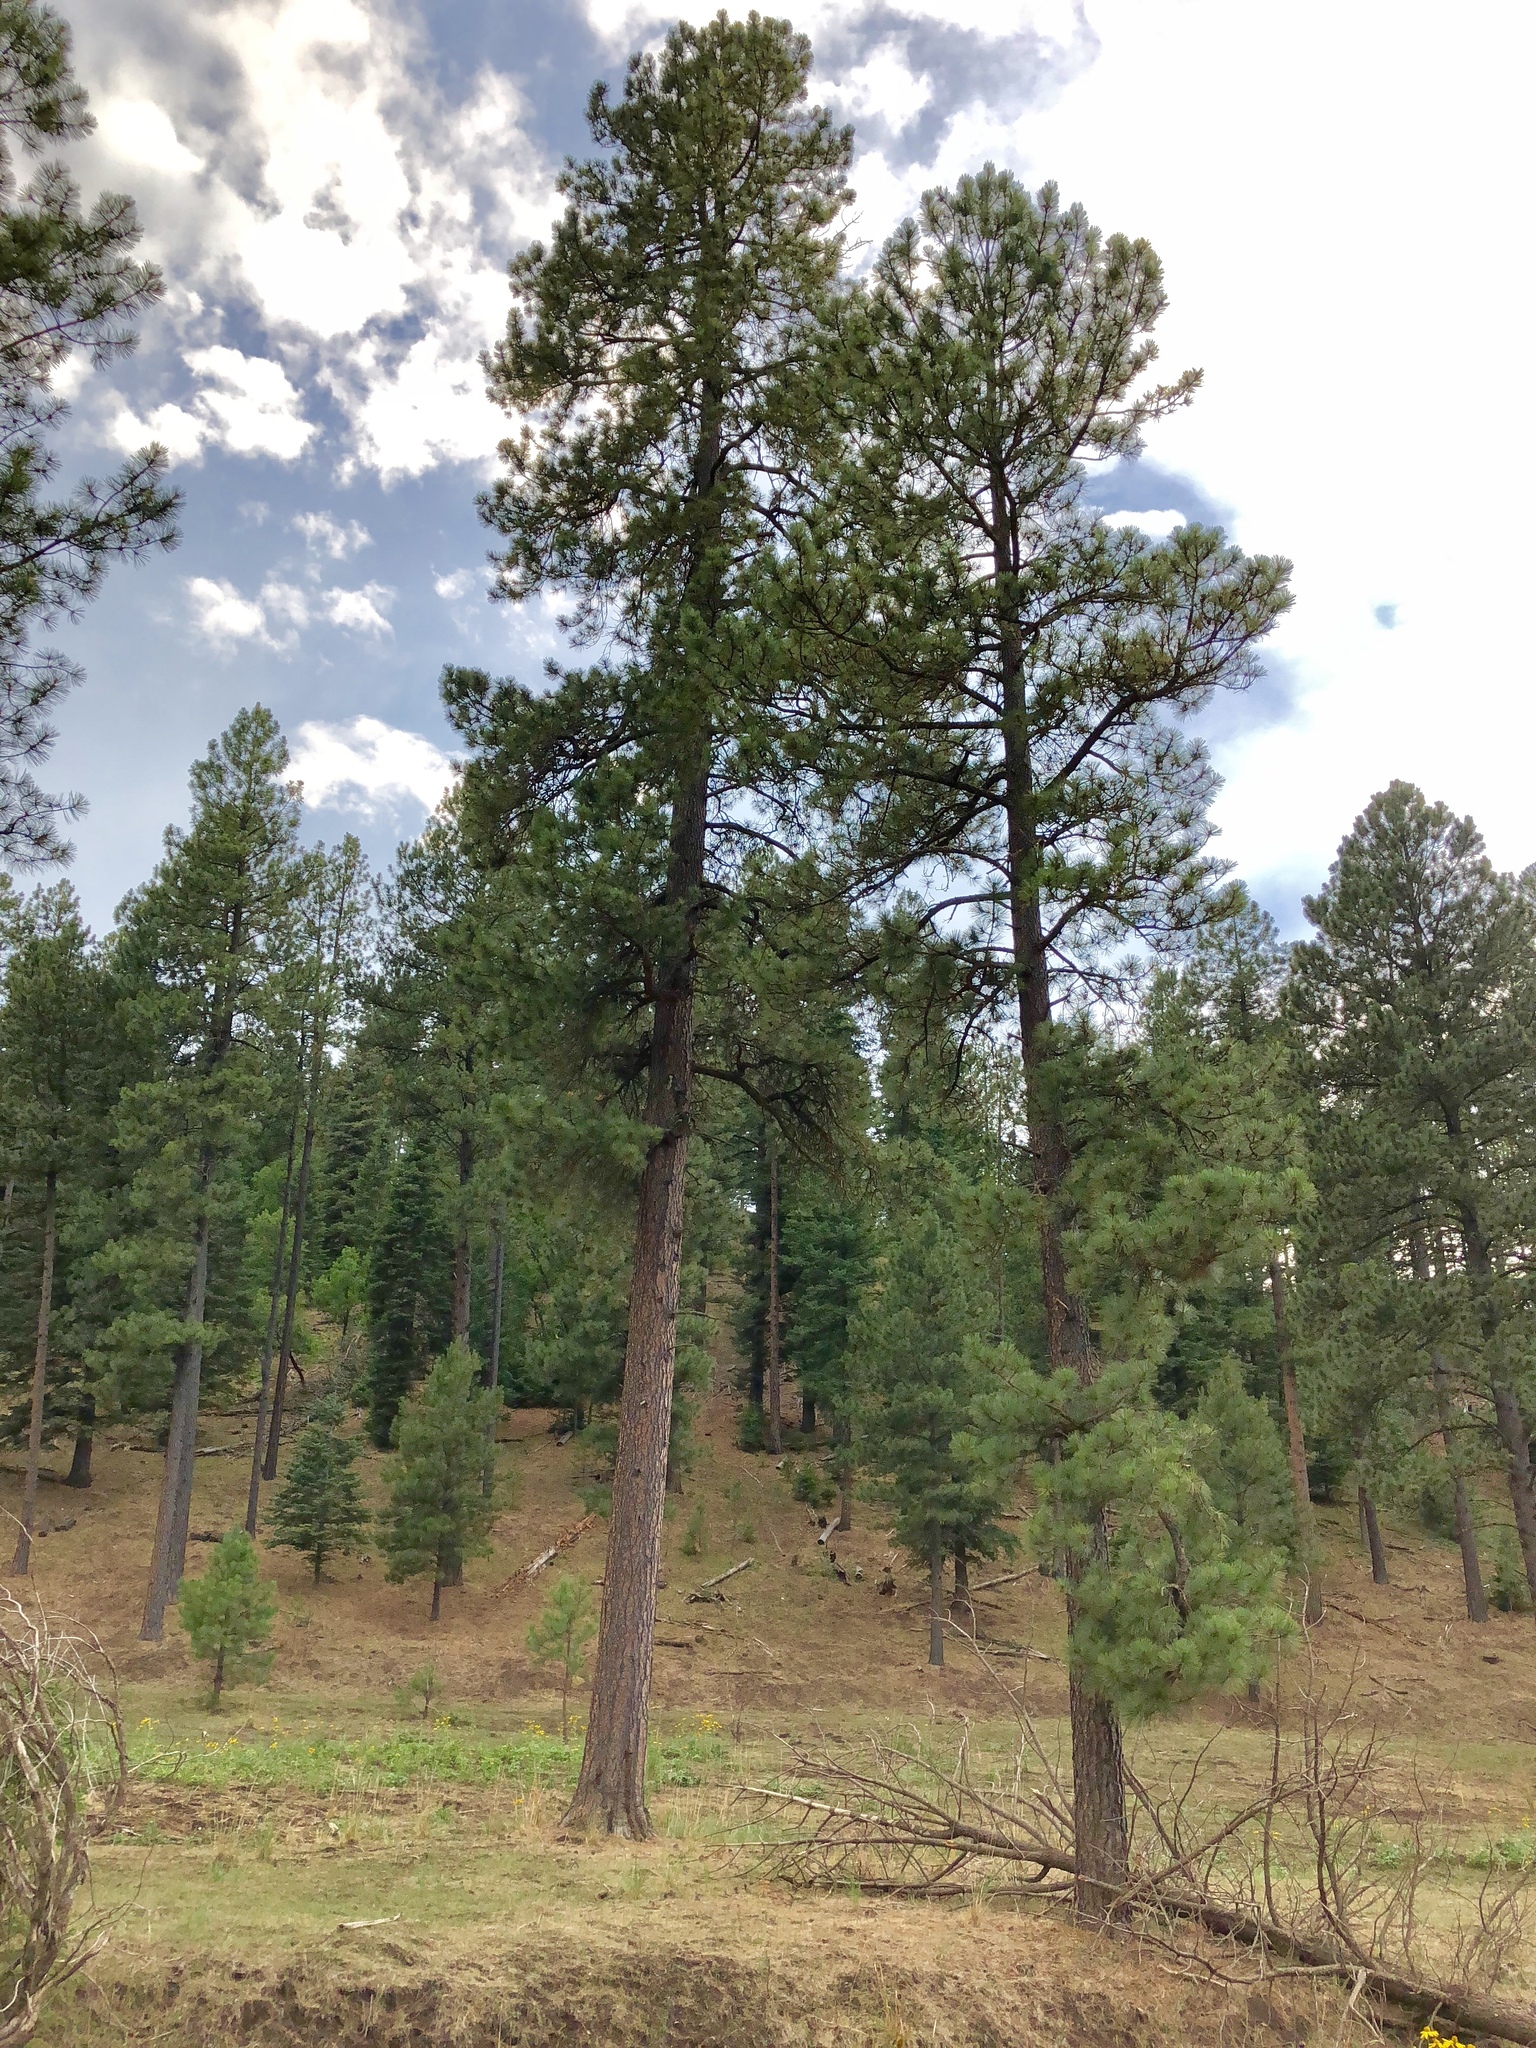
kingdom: Plantae
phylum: Tracheophyta
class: Pinopsida
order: Pinales
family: Pinaceae
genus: Pinus
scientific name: Pinus ponderosa
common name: Western yellow-pine
